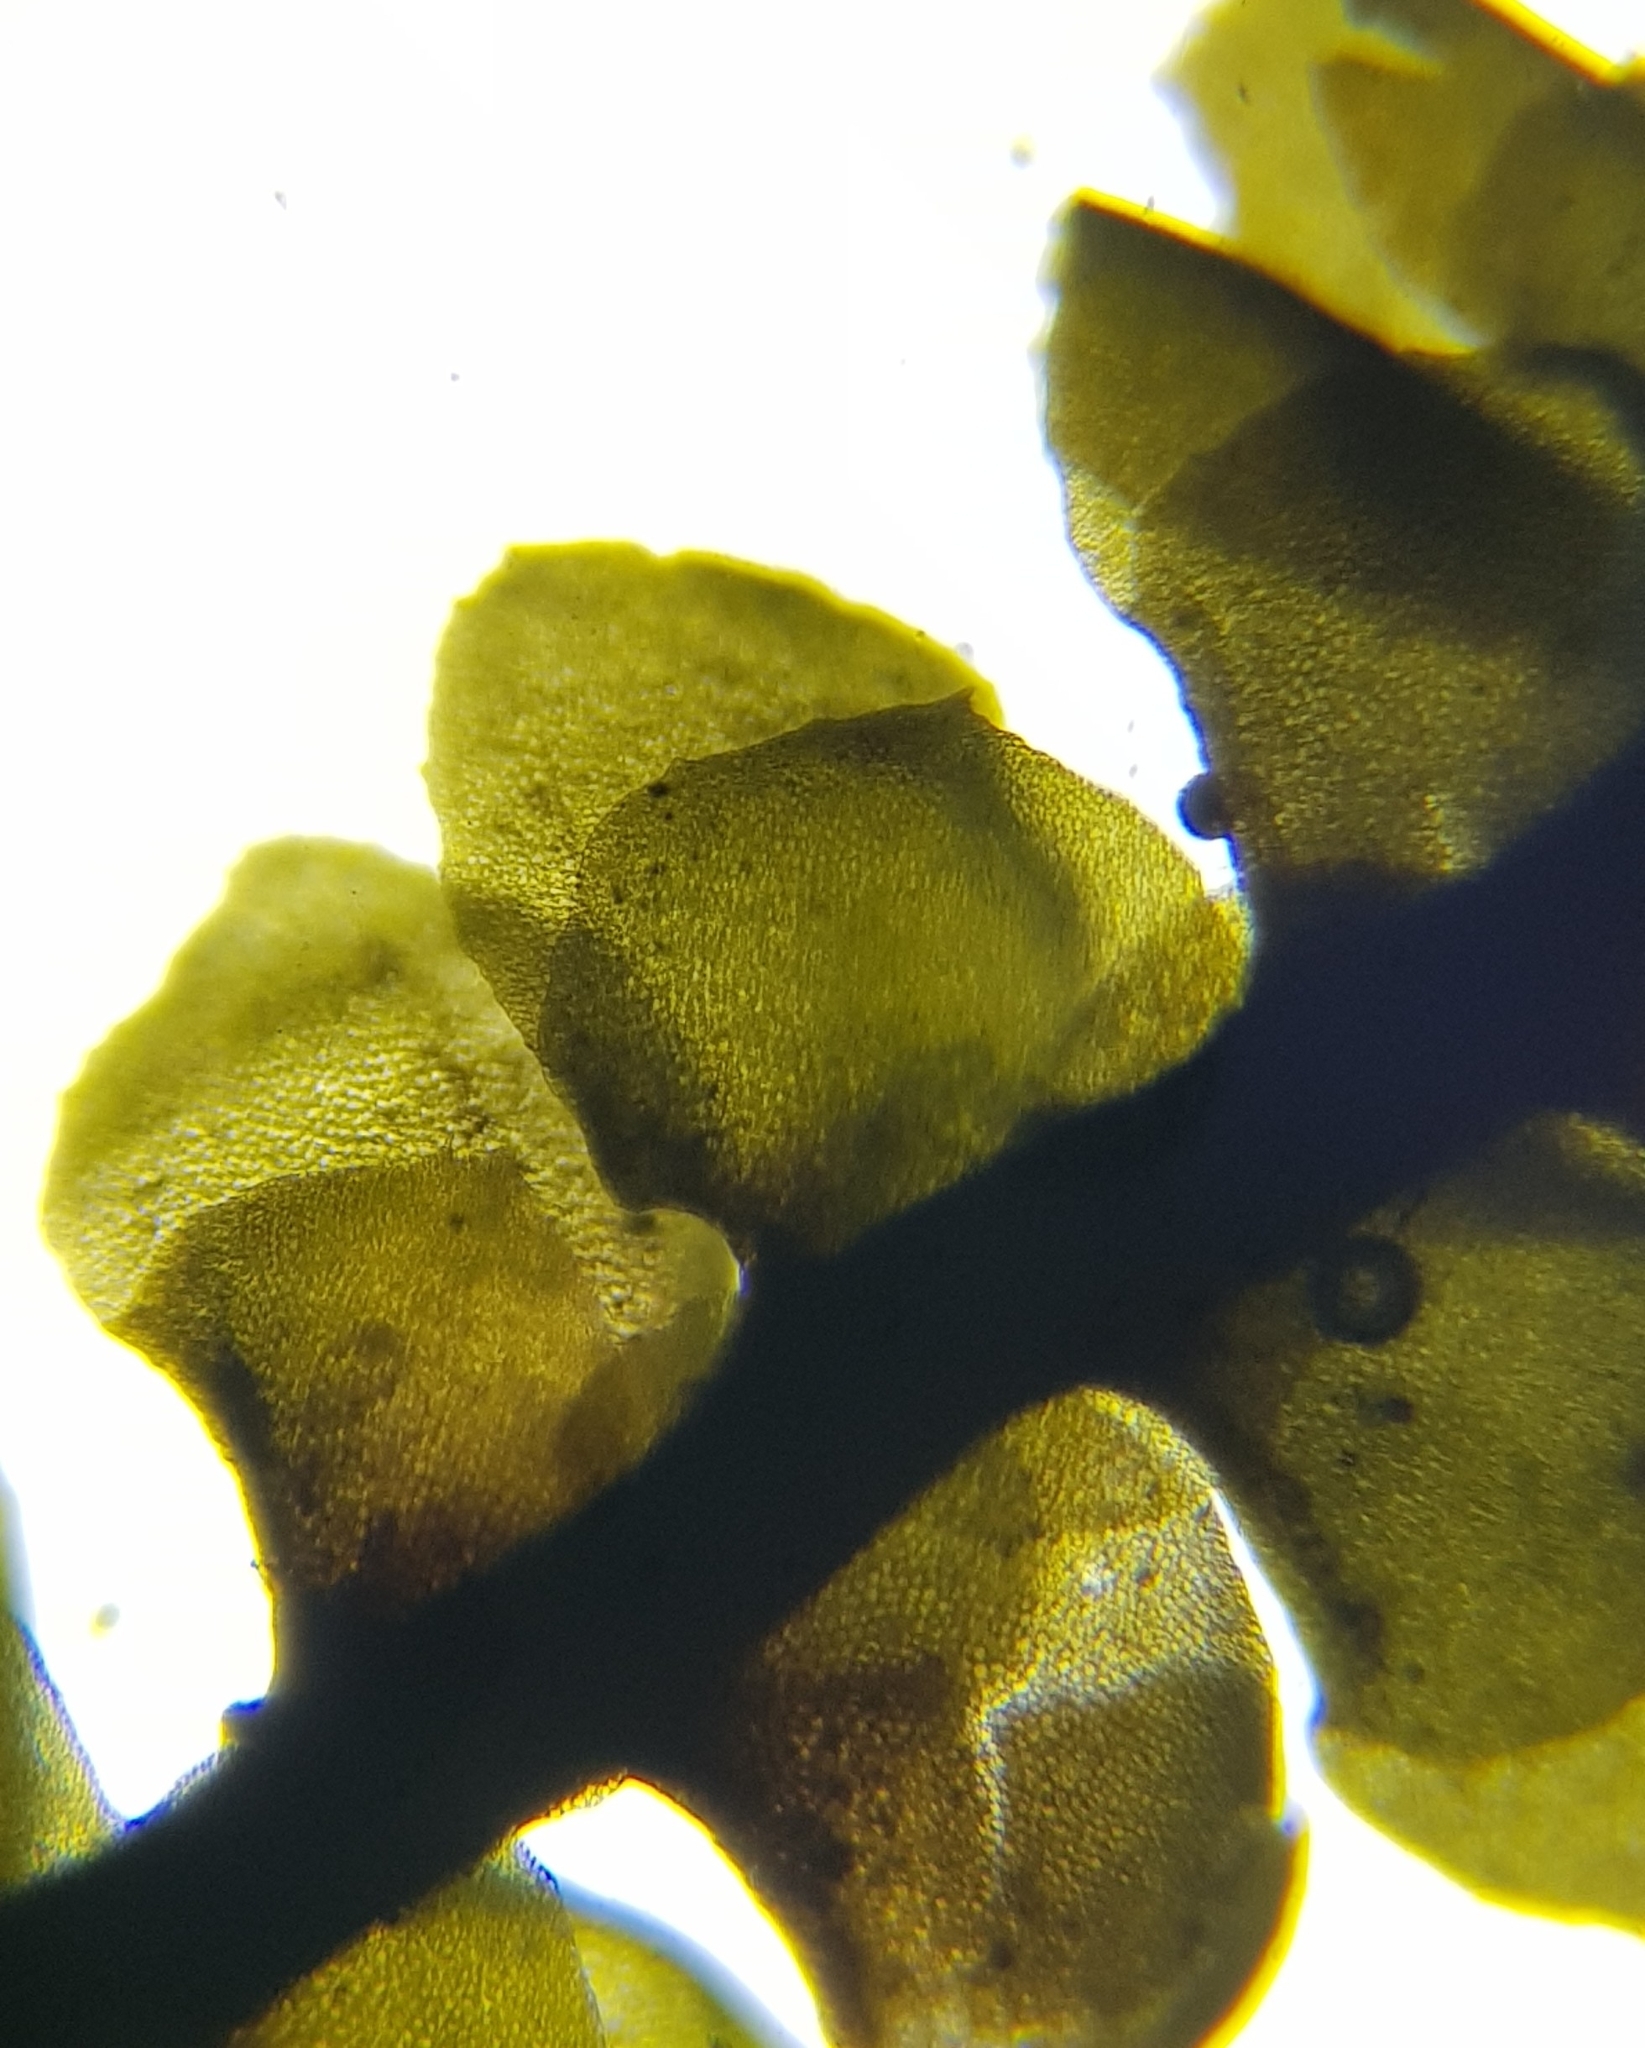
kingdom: Plantae
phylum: Marchantiophyta
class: Jungermanniopsida
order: Jungermanniales
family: Scapaniaceae
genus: Scapania
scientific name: Scapania aspera
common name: Rough earwort
